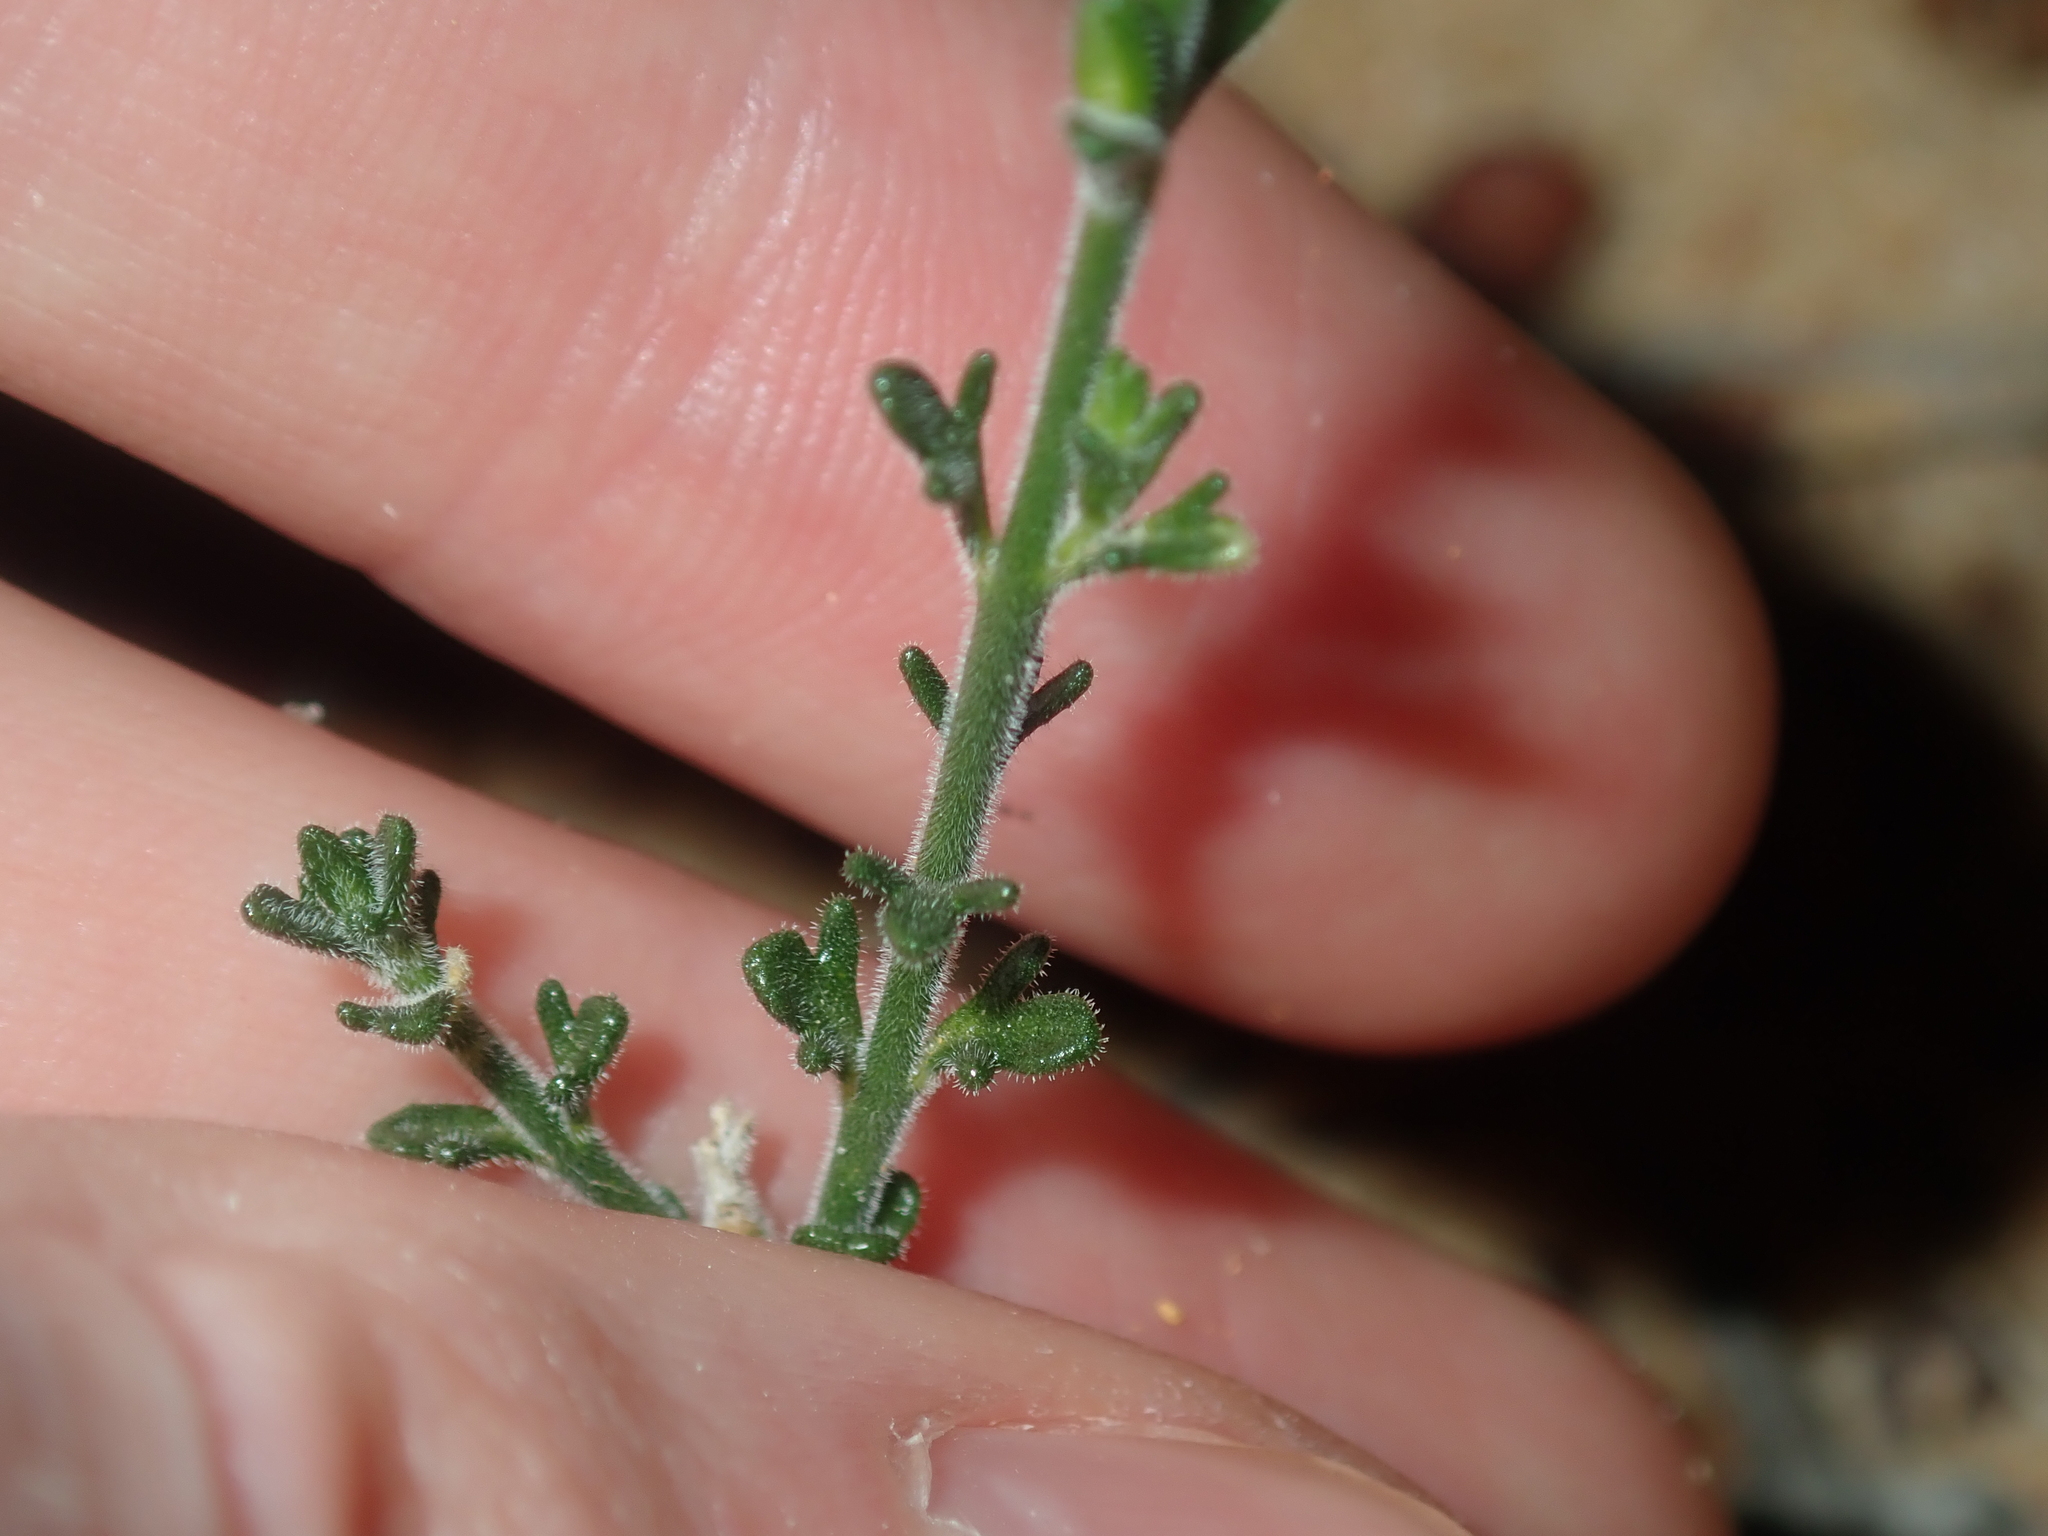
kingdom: Plantae
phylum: Tracheophyta
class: Magnoliopsida
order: Sapindales
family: Rutaceae
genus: Cyanothamnus
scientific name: Cyanothamnus coerulescens
